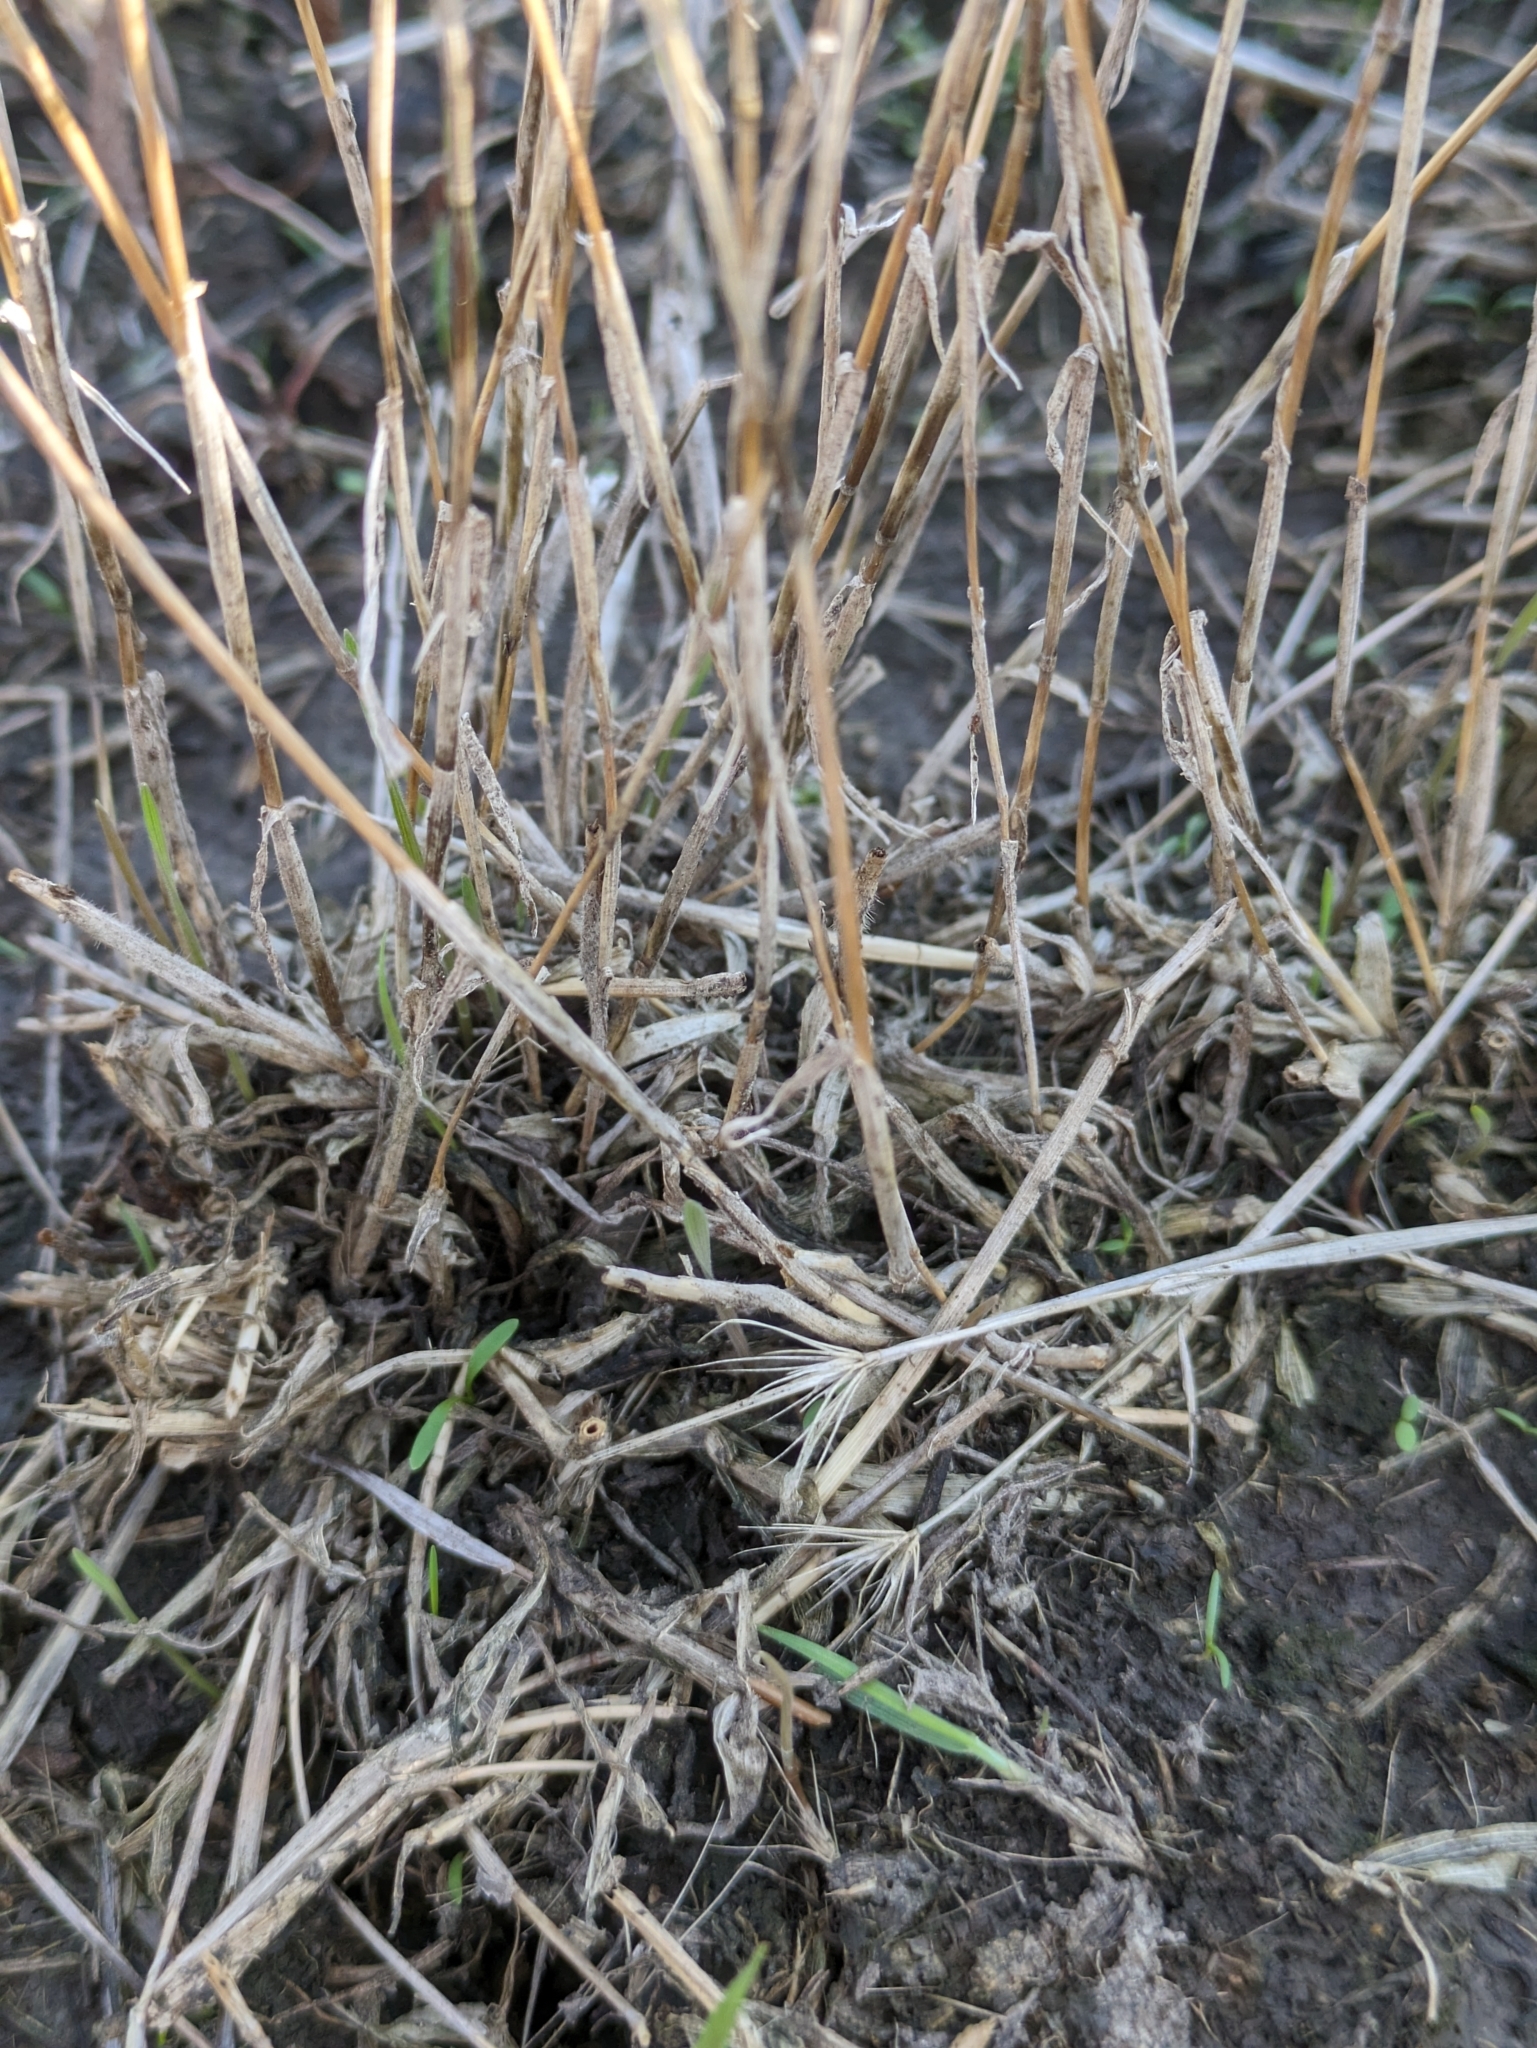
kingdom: Plantae
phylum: Tracheophyta
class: Liliopsida
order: Poales
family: Poaceae
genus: Hordeum
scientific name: Hordeum marinum
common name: Sea barley
